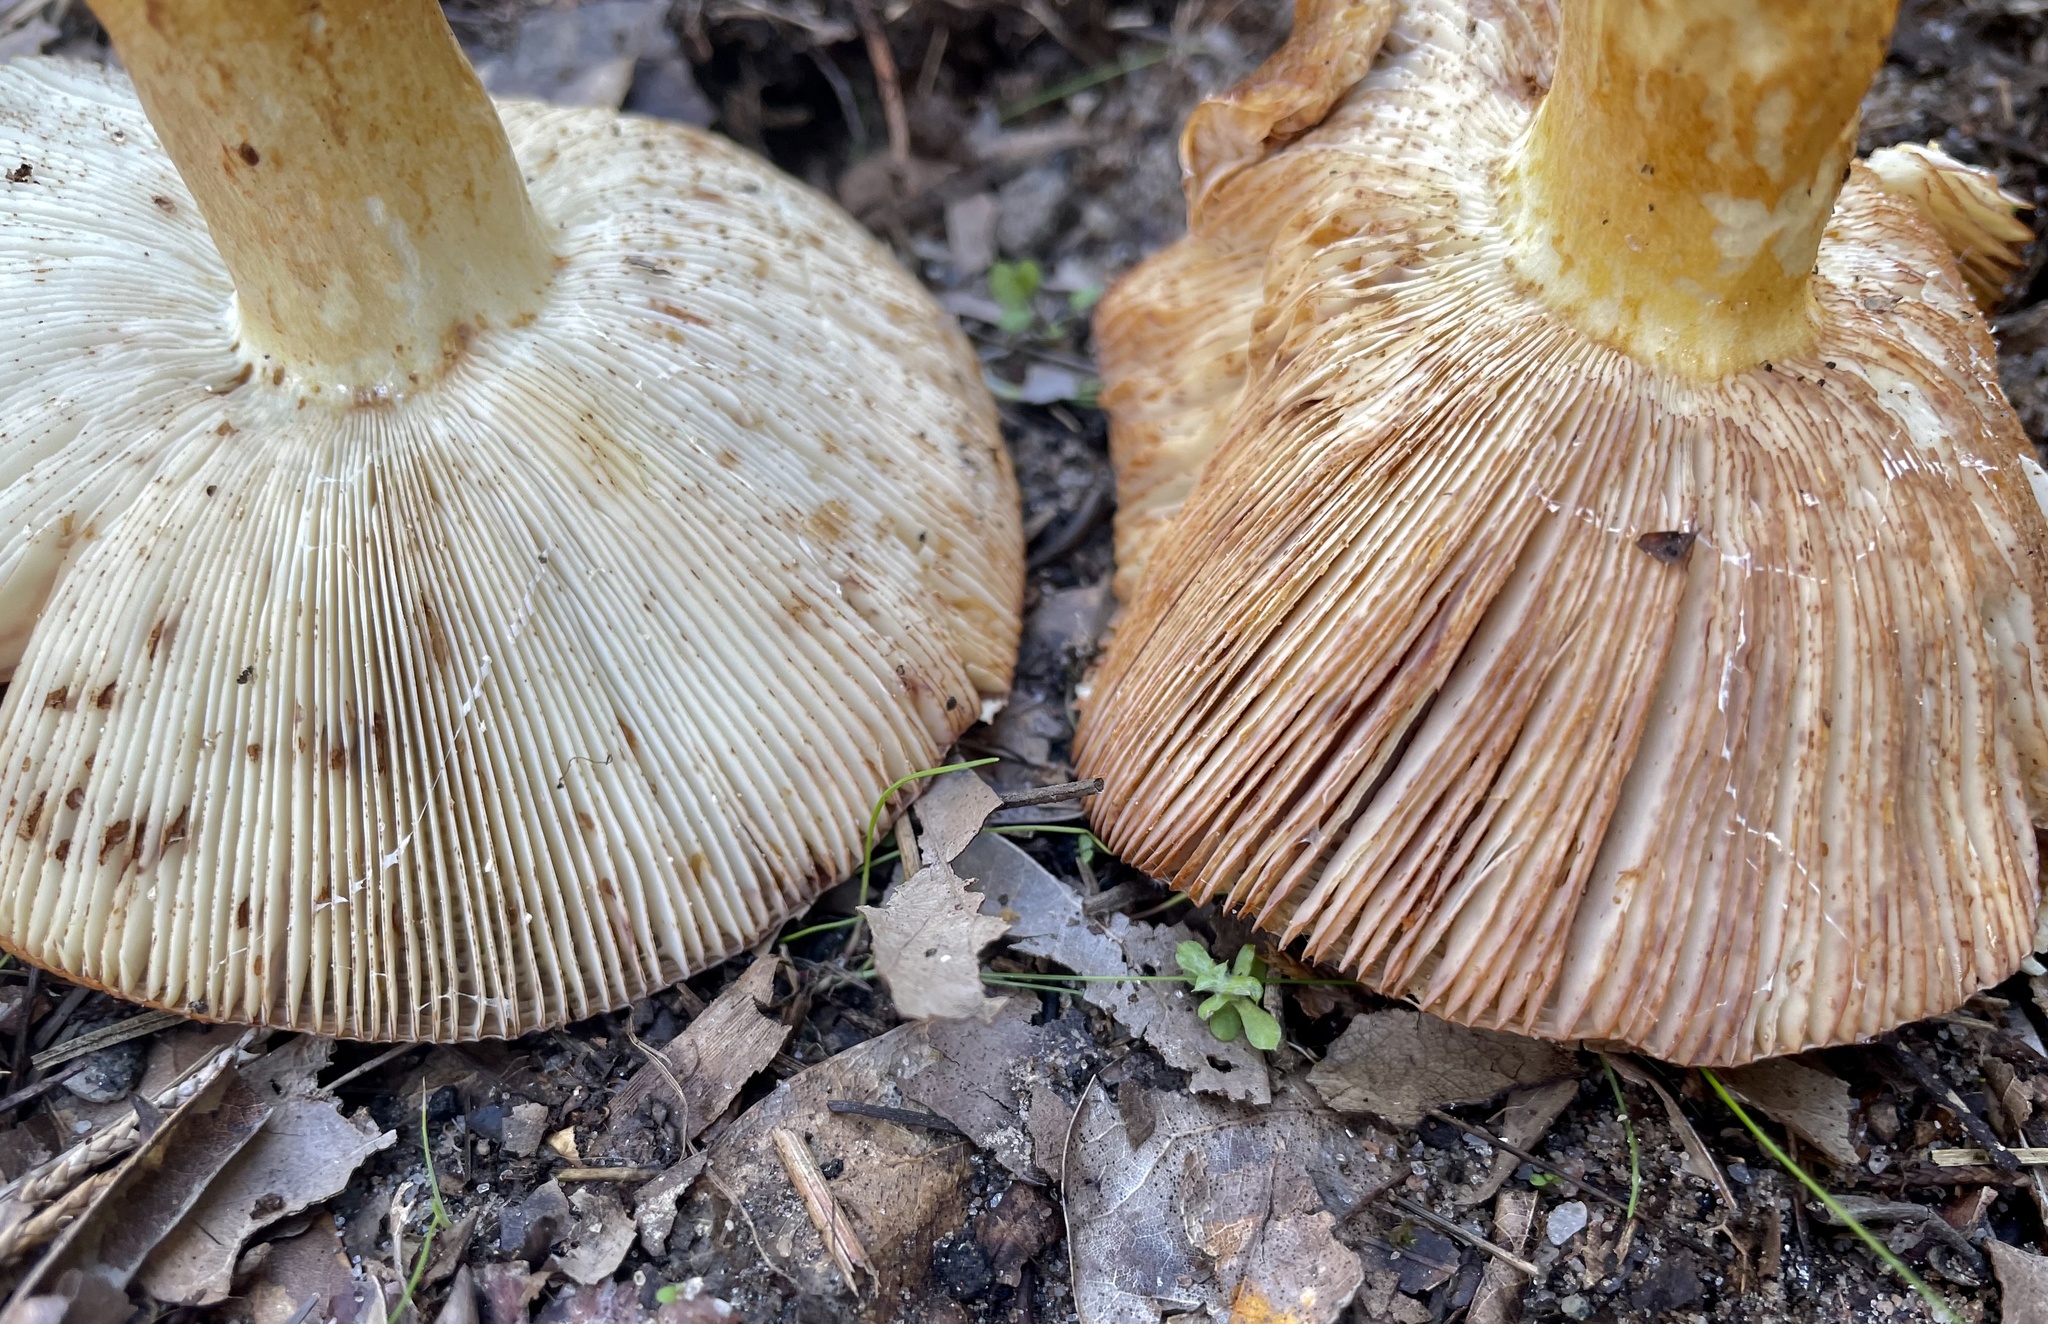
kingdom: Fungi
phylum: Basidiomycota
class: Agaricomycetes
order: Russulales
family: Russulaceae
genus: Russula
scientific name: Russula grata
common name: Bitter almond brittlegill
